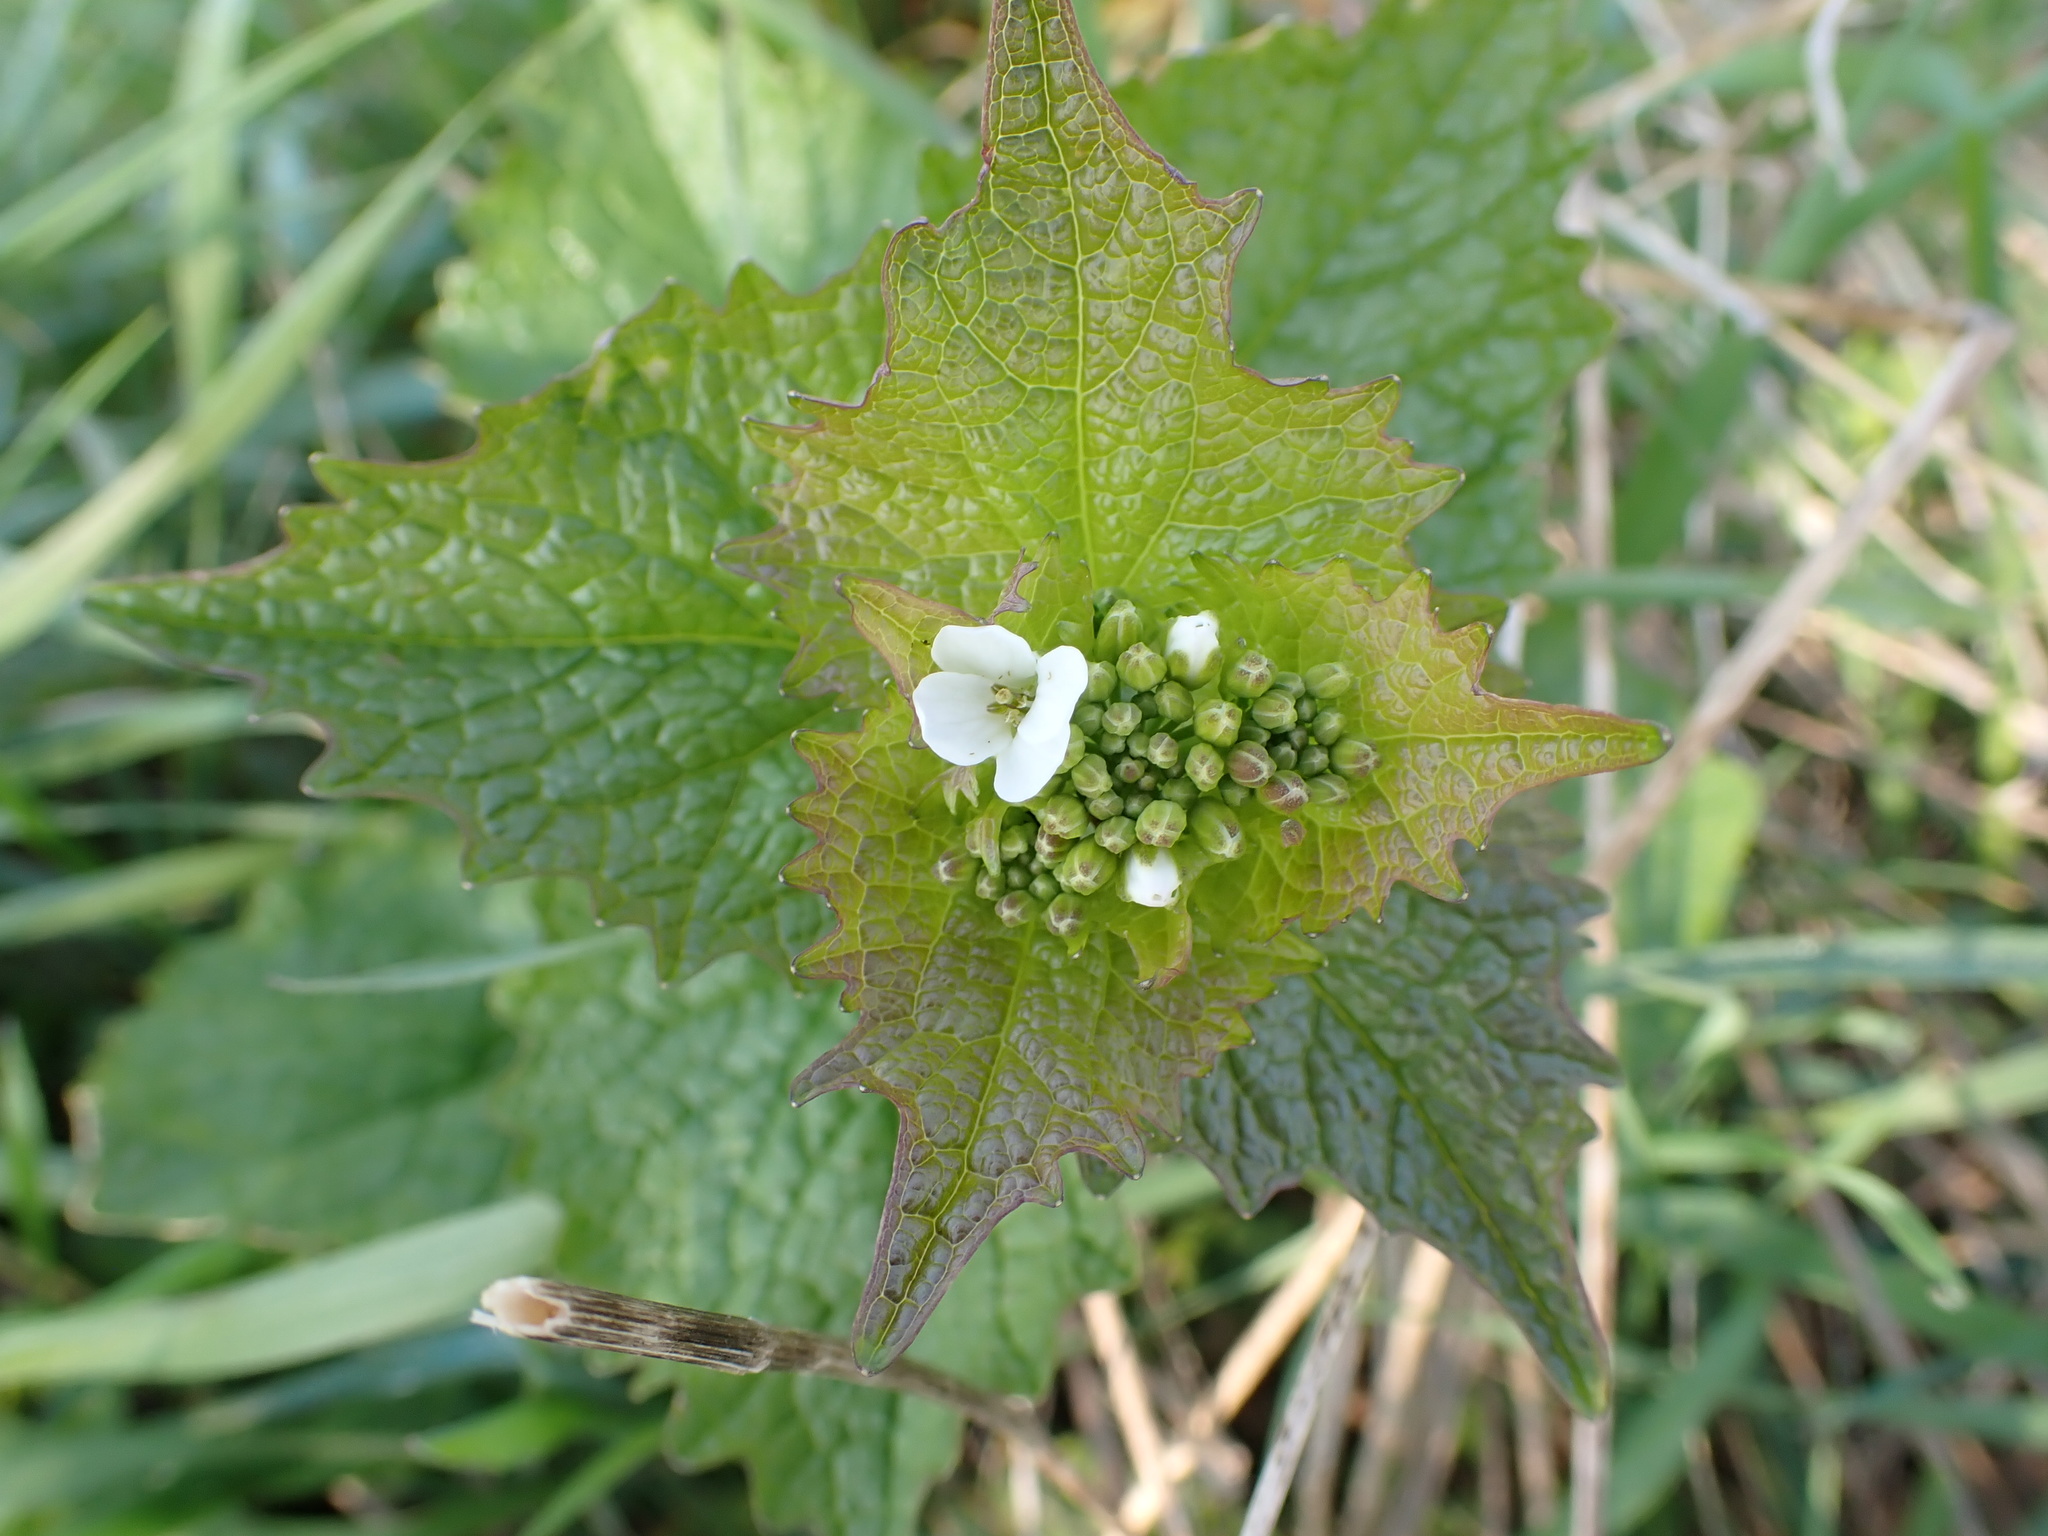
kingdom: Plantae
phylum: Tracheophyta
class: Magnoliopsida
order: Brassicales
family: Brassicaceae
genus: Alliaria
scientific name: Alliaria petiolata
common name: Garlic mustard
